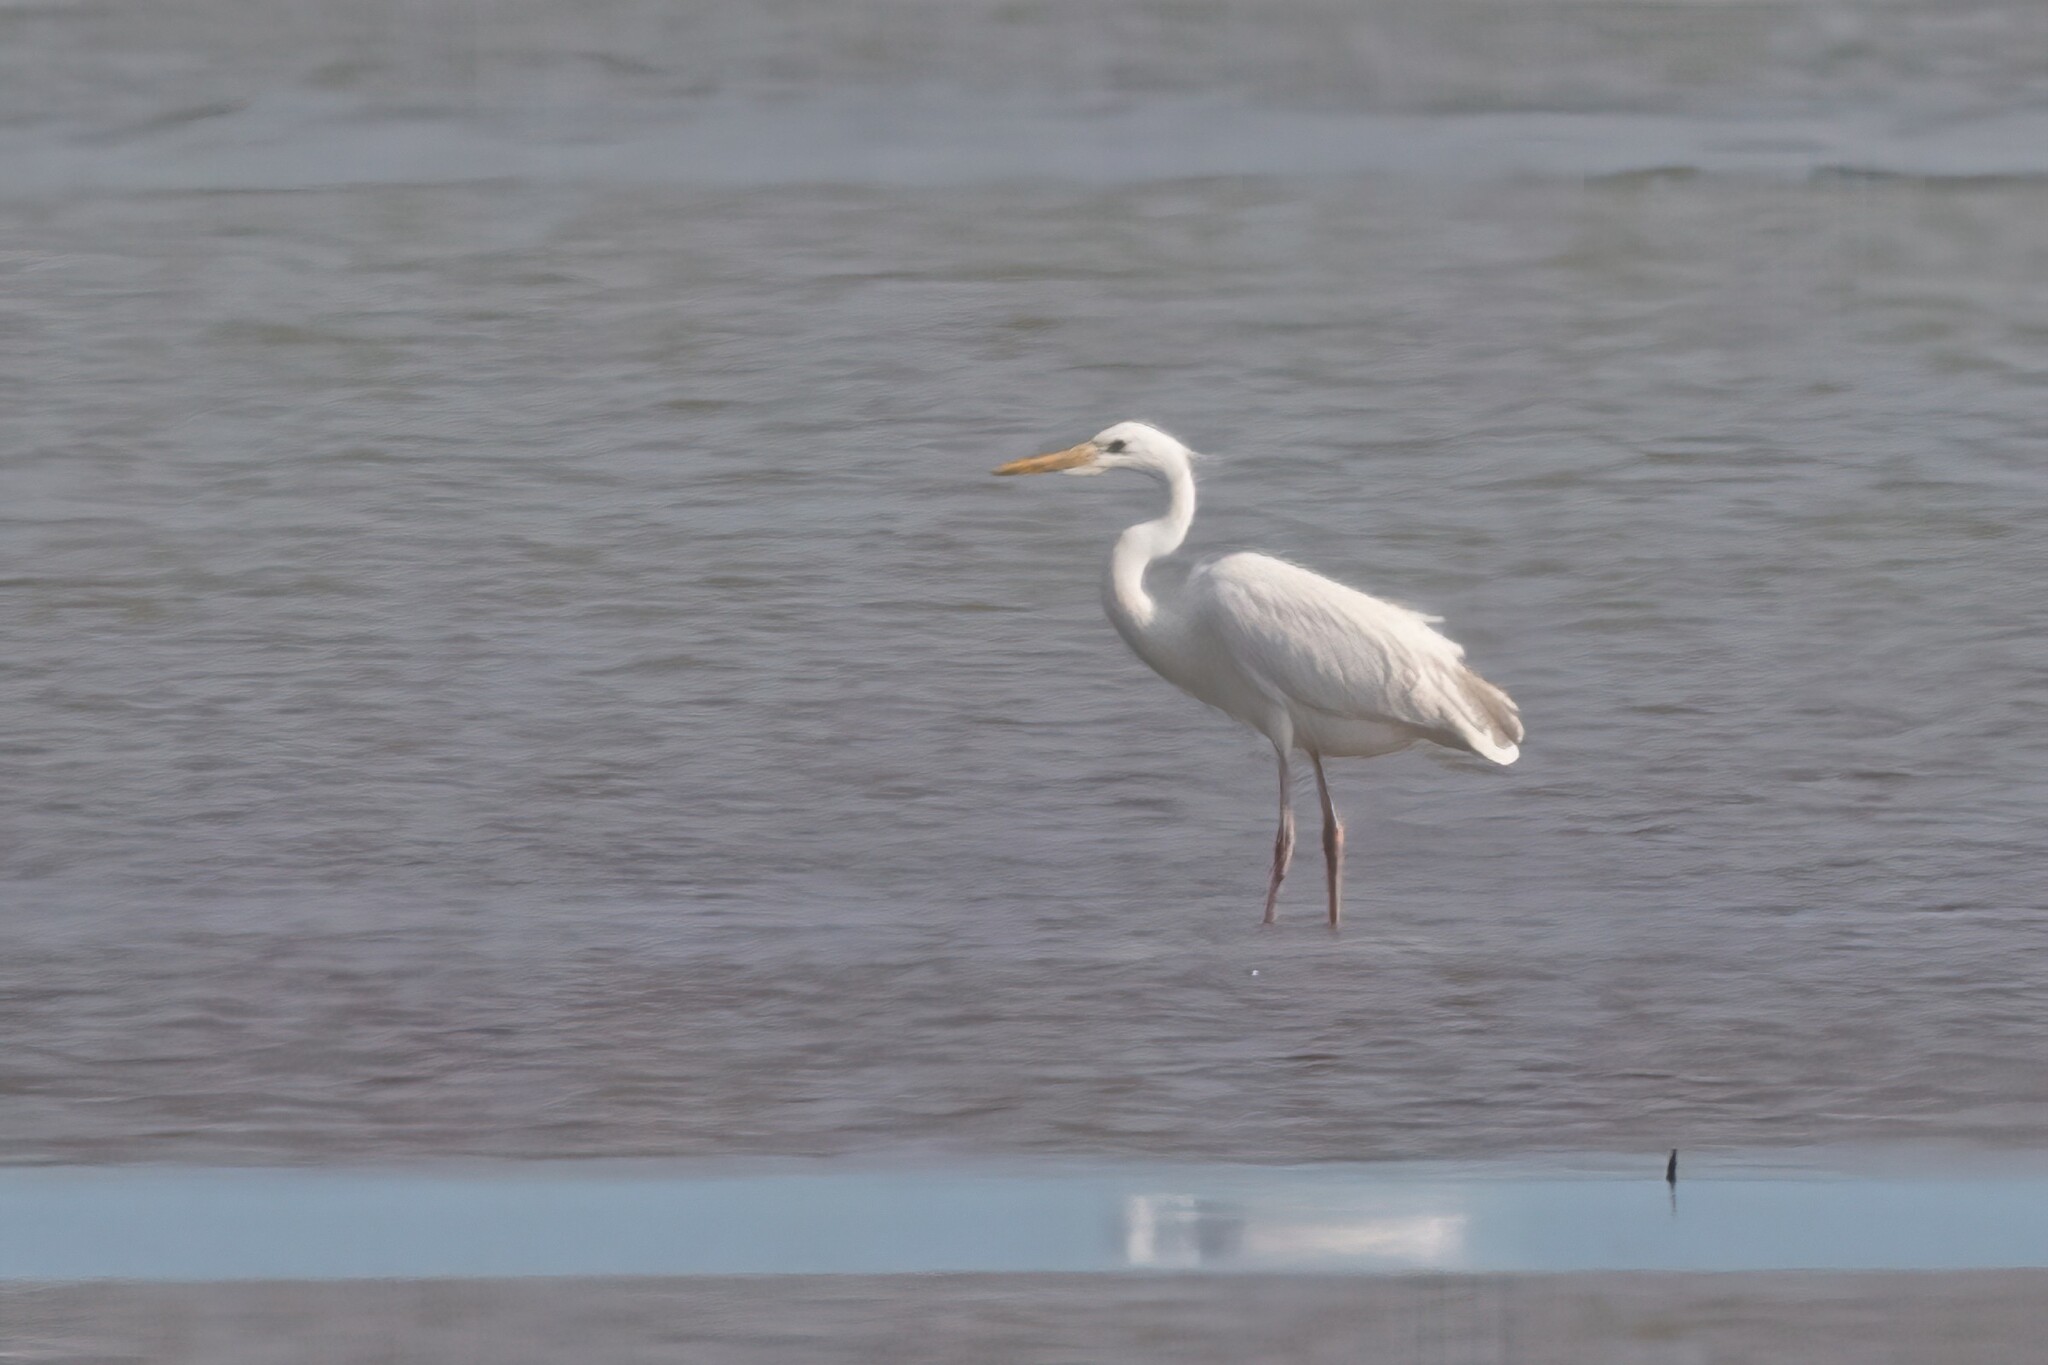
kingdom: Animalia
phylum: Chordata
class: Aves
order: Pelecaniformes
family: Ardeidae
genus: Ardea
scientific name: Ardea herodias
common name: Great blue heron
